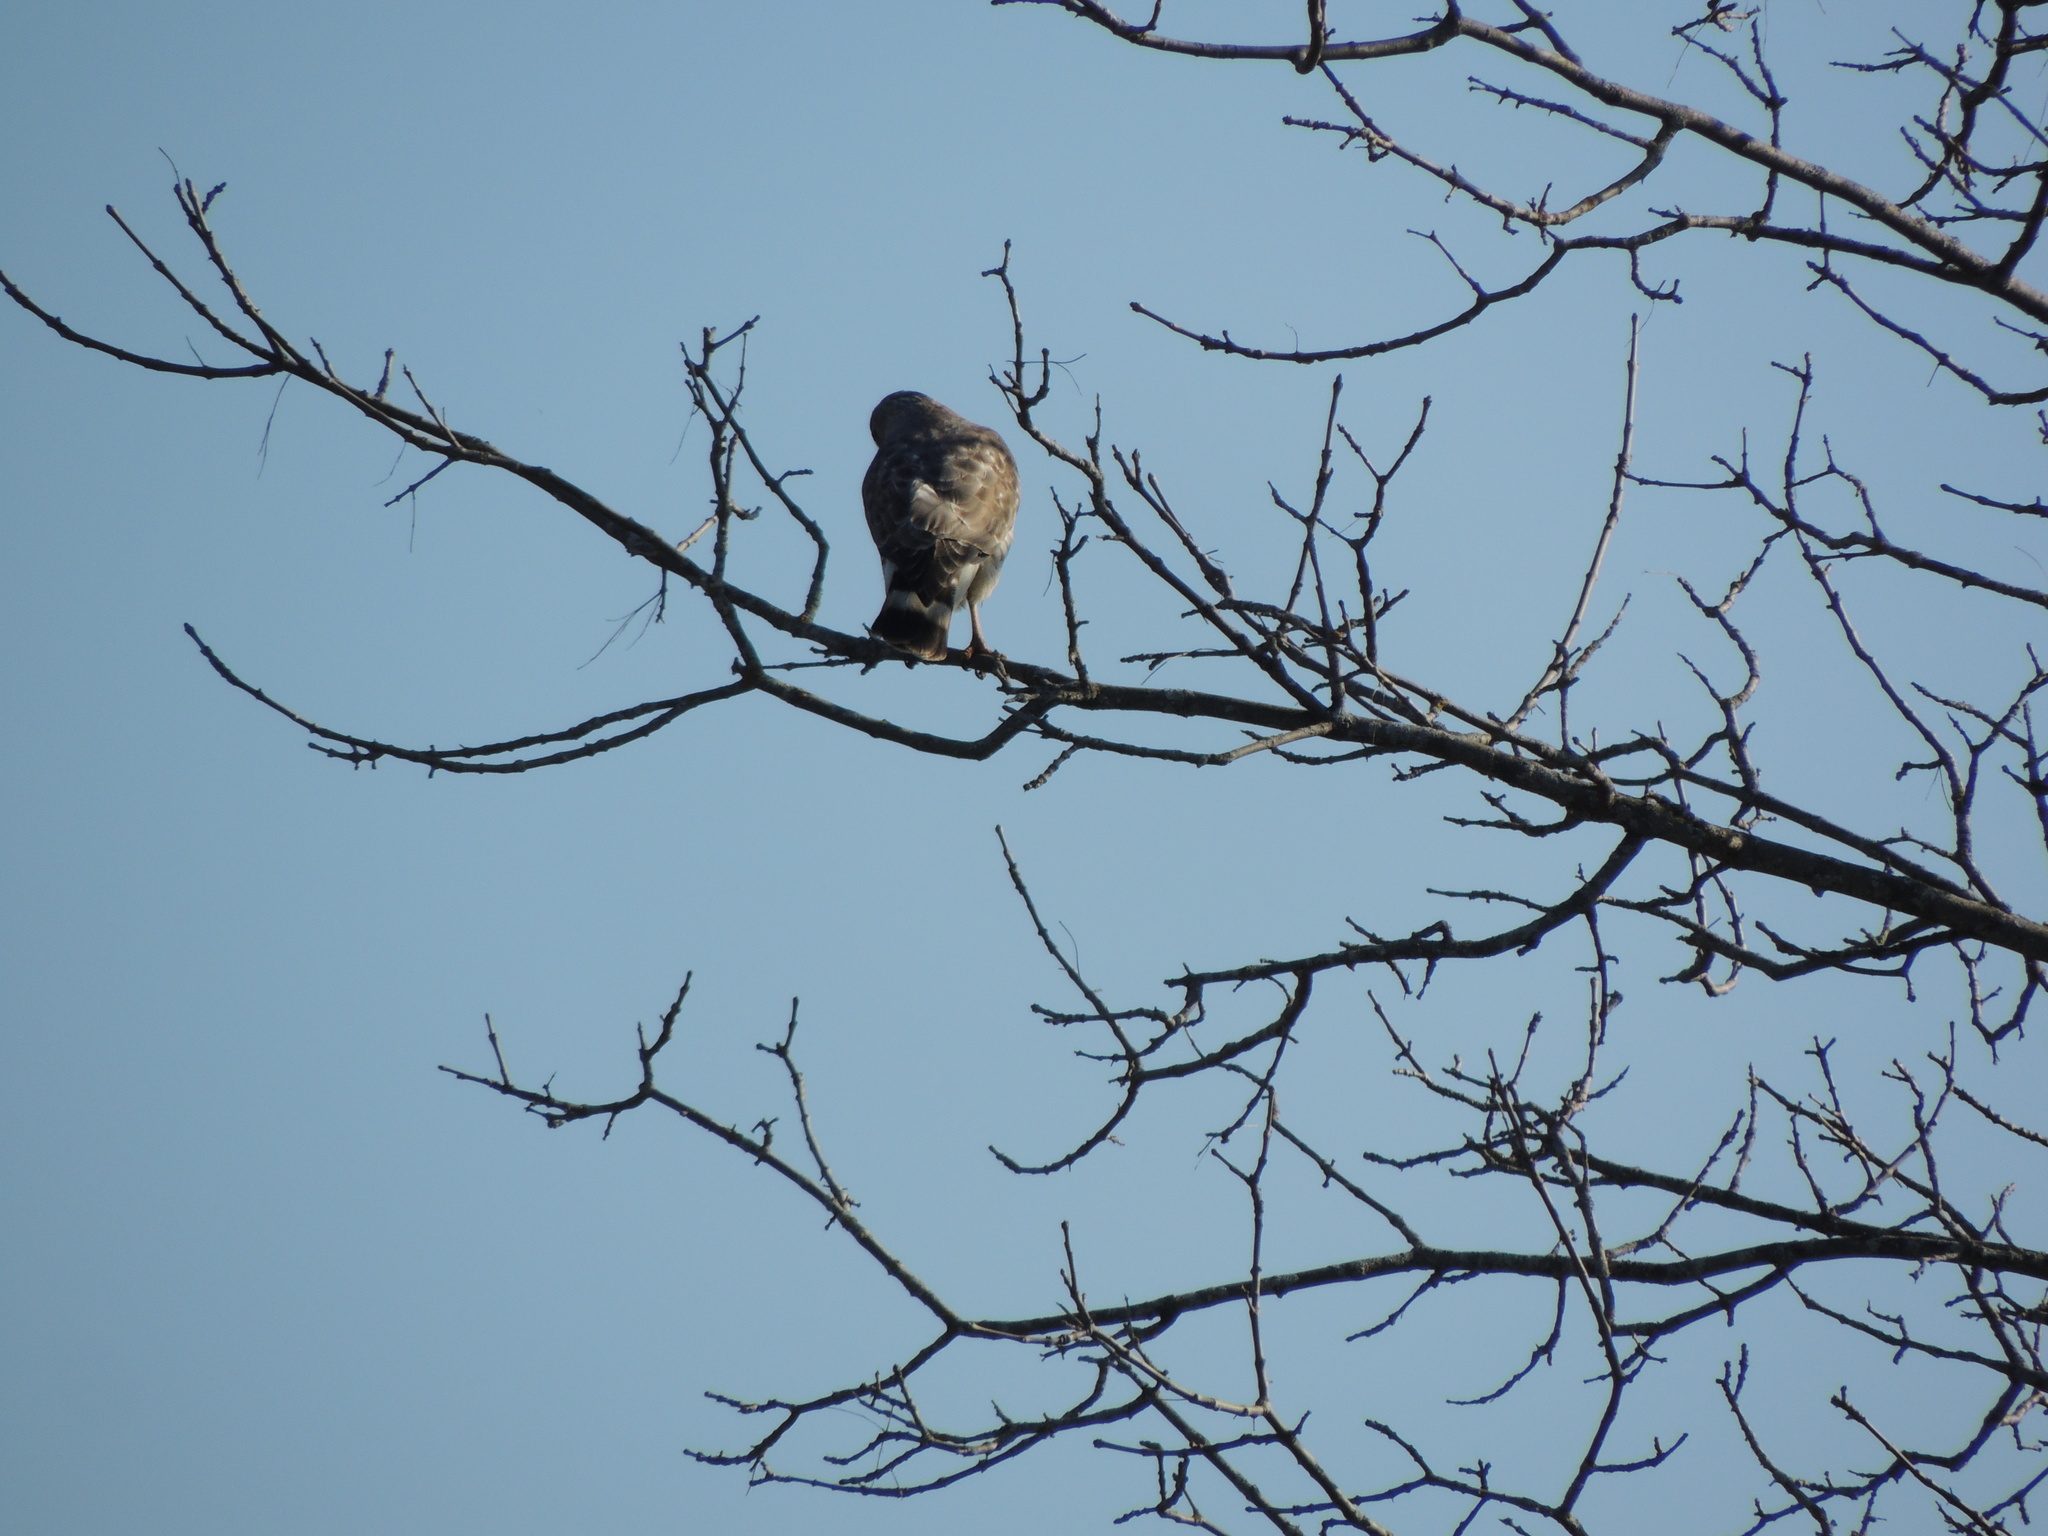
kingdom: Animalia
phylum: Chordata
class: Aves
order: Accipitriformes
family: Accipitridae
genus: Buteo
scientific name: Buteo platypterus
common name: Broad-winged hawk
